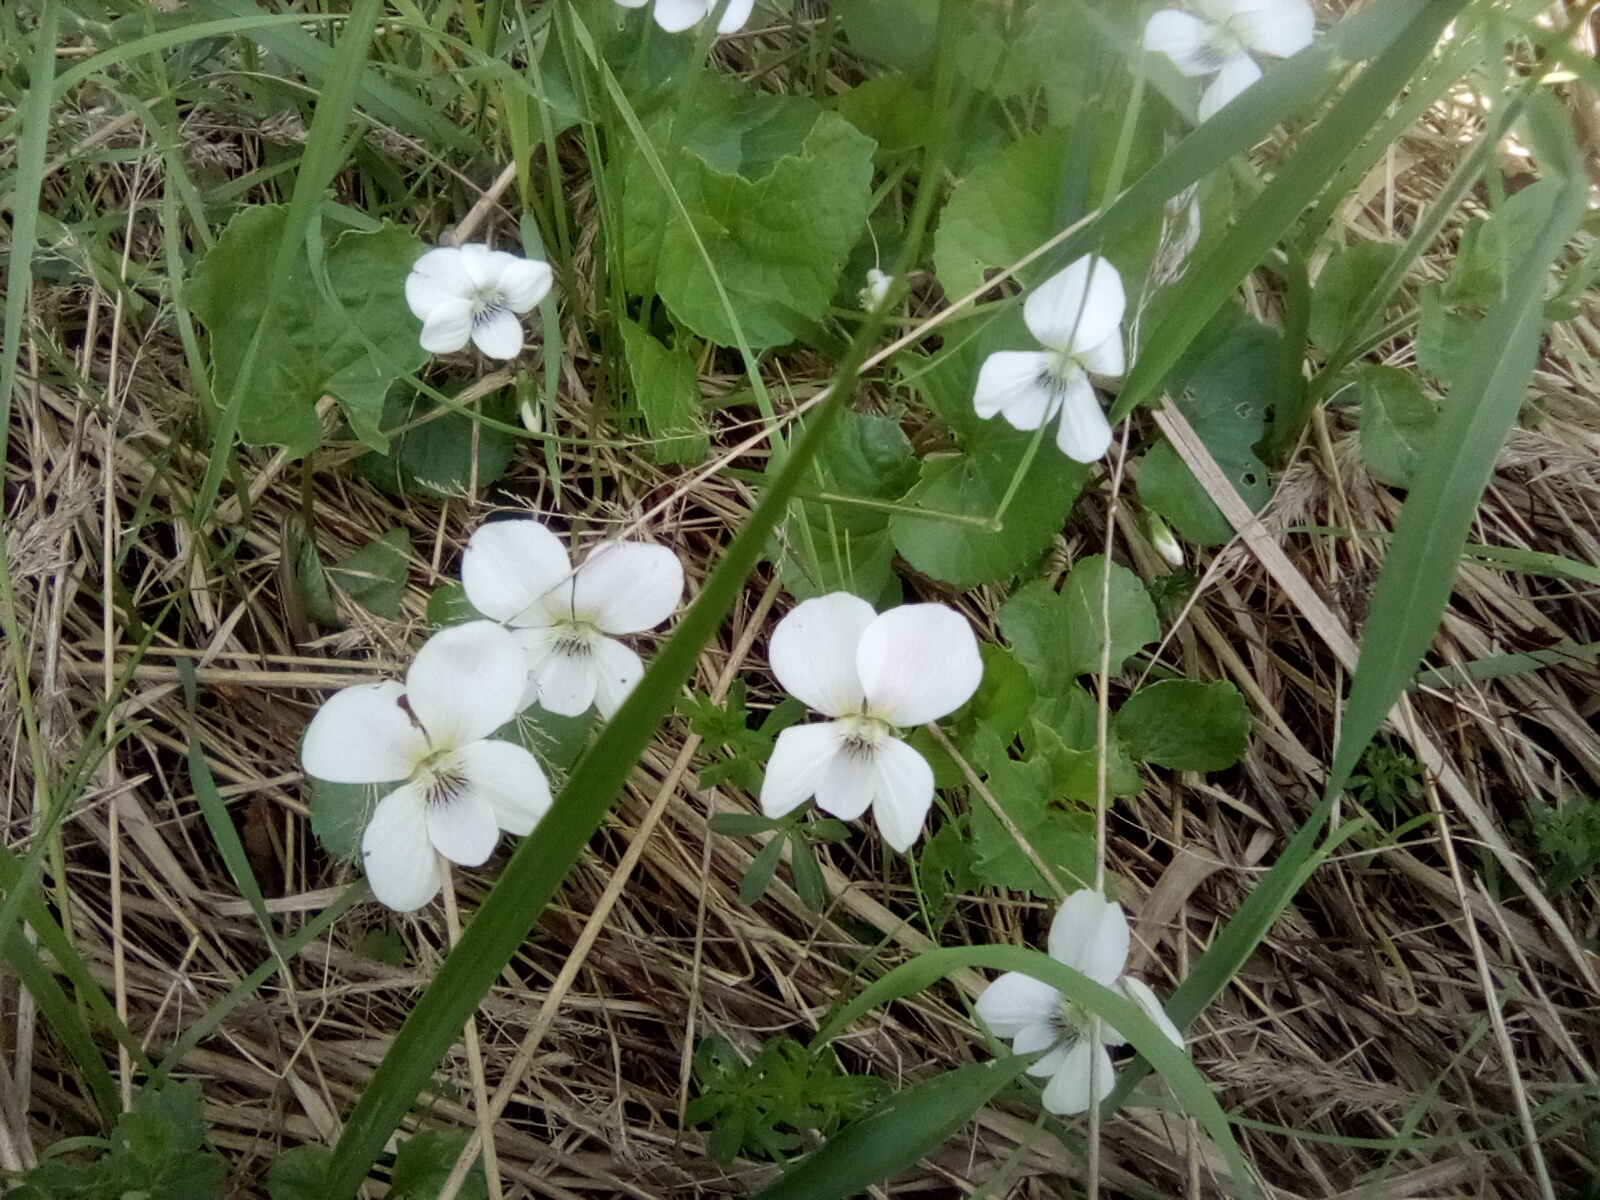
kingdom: Plantae
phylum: Tracheophyta
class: Magnoliopsida
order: Malpighiales
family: Violaceae
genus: Viola
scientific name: Viola sororia
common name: Dooryard violet
